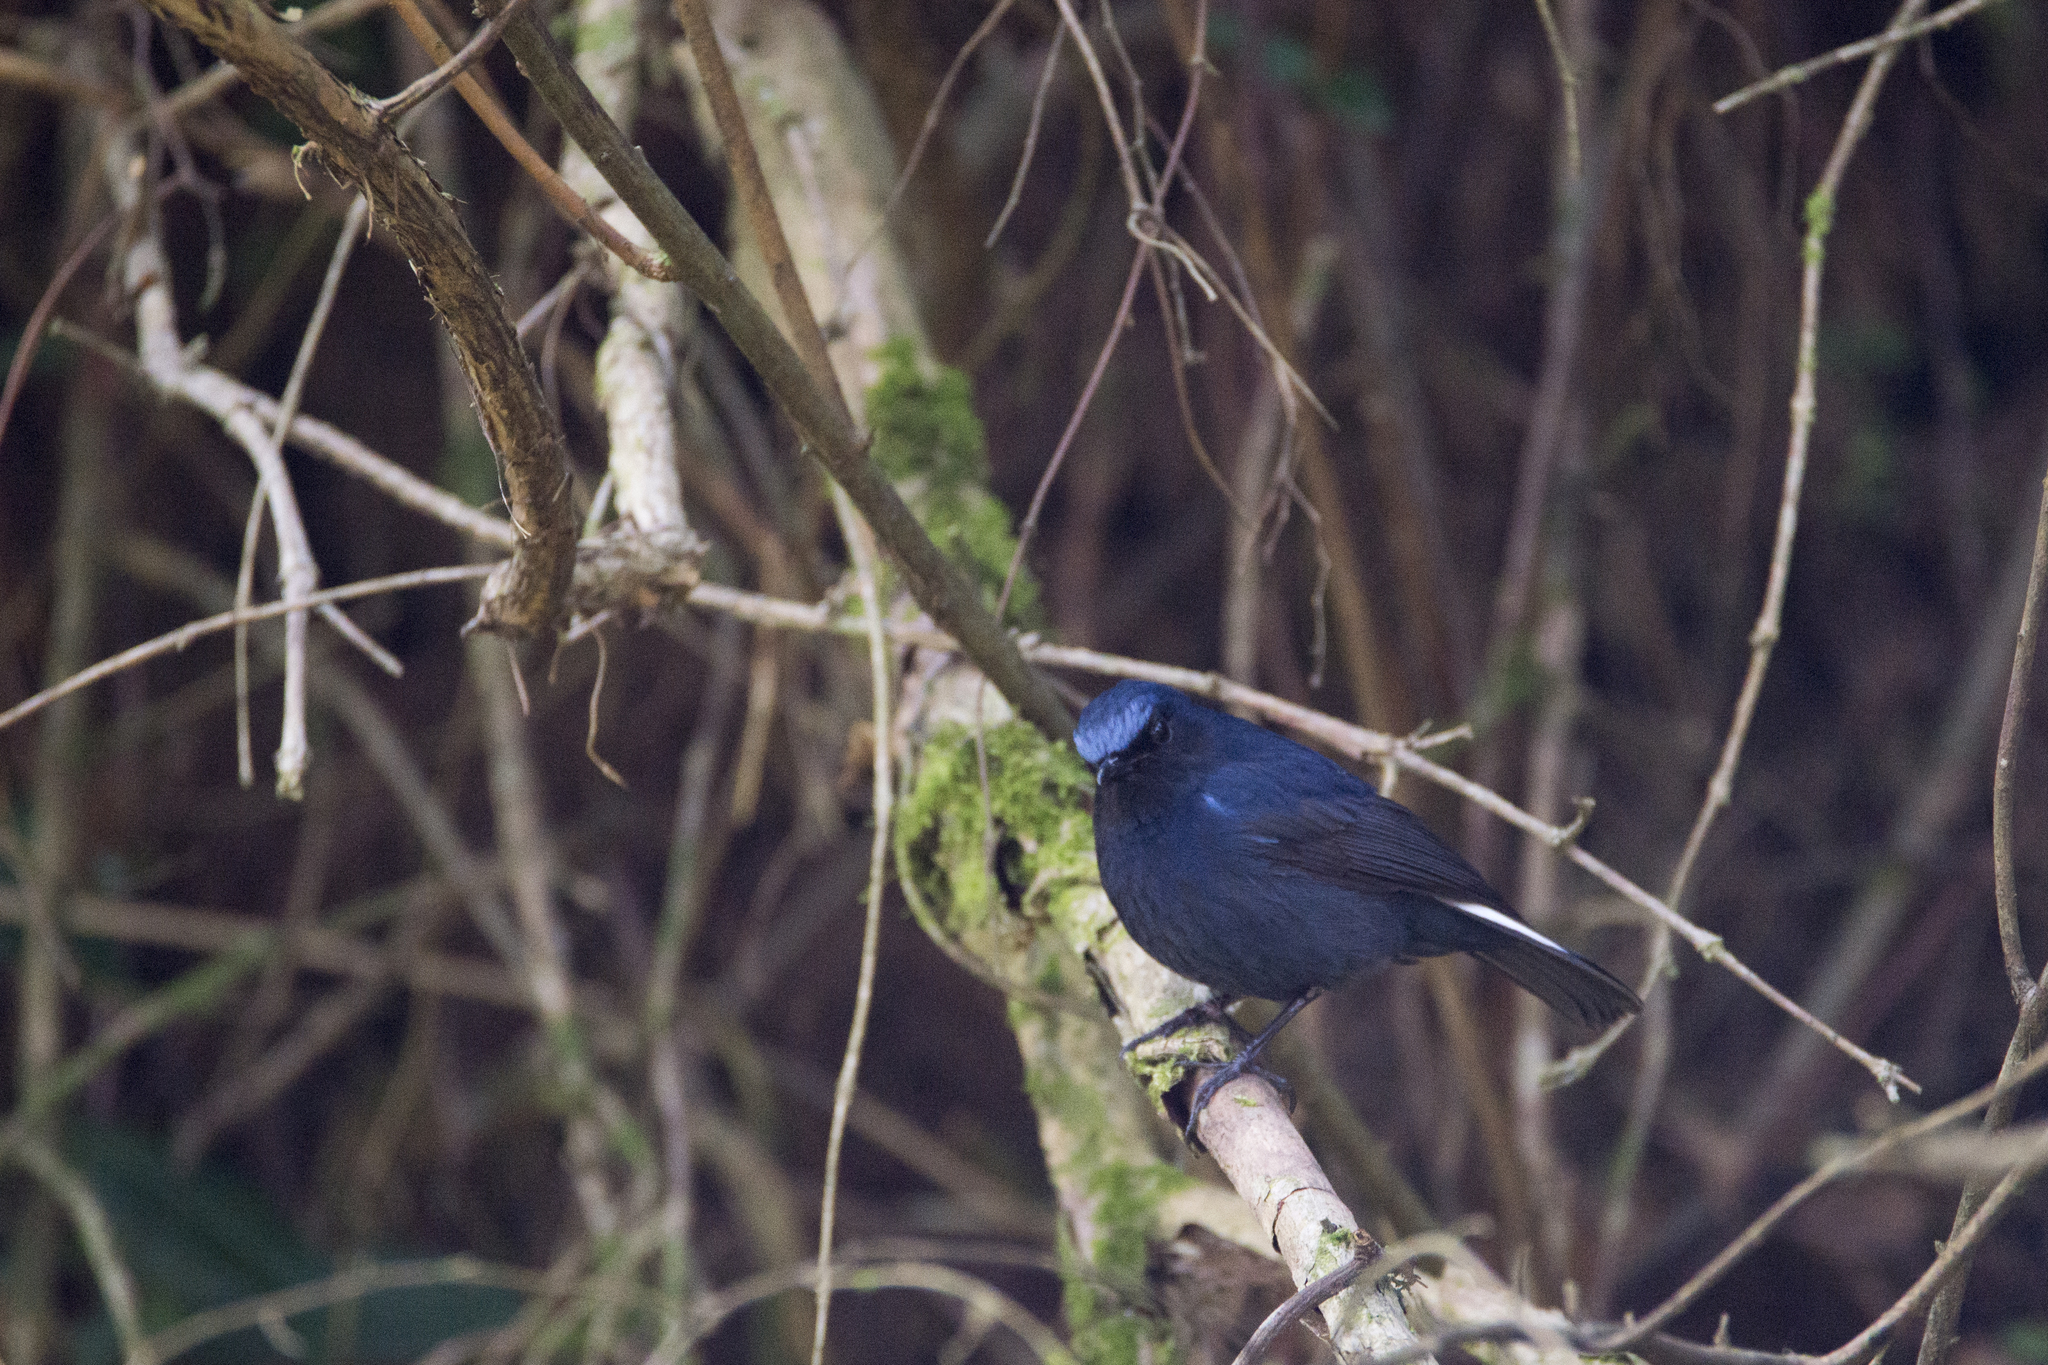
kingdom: Animalia
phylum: Chordata
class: Aves
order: Passeriformes
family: Muscicapidae
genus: Myiomela
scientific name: Myiomela leucura
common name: White-tailed robin
